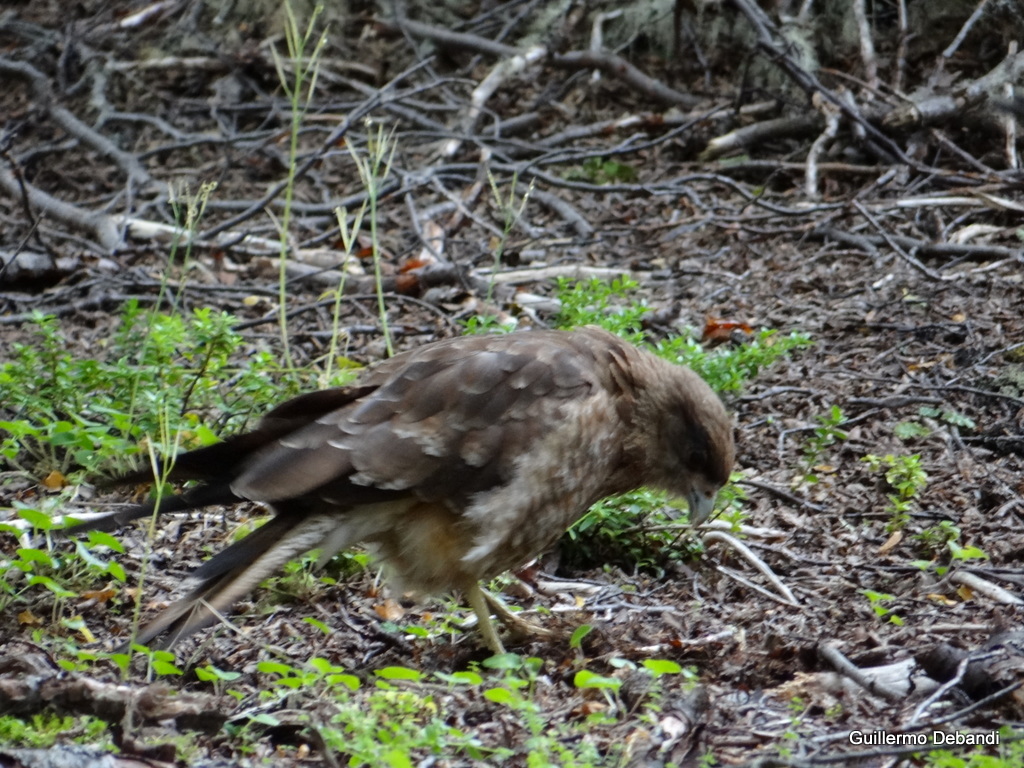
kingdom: Animalia
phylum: Chordata
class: Aves
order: Falconiformes
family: Falconidae
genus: Daptrius
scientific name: Daptrius
